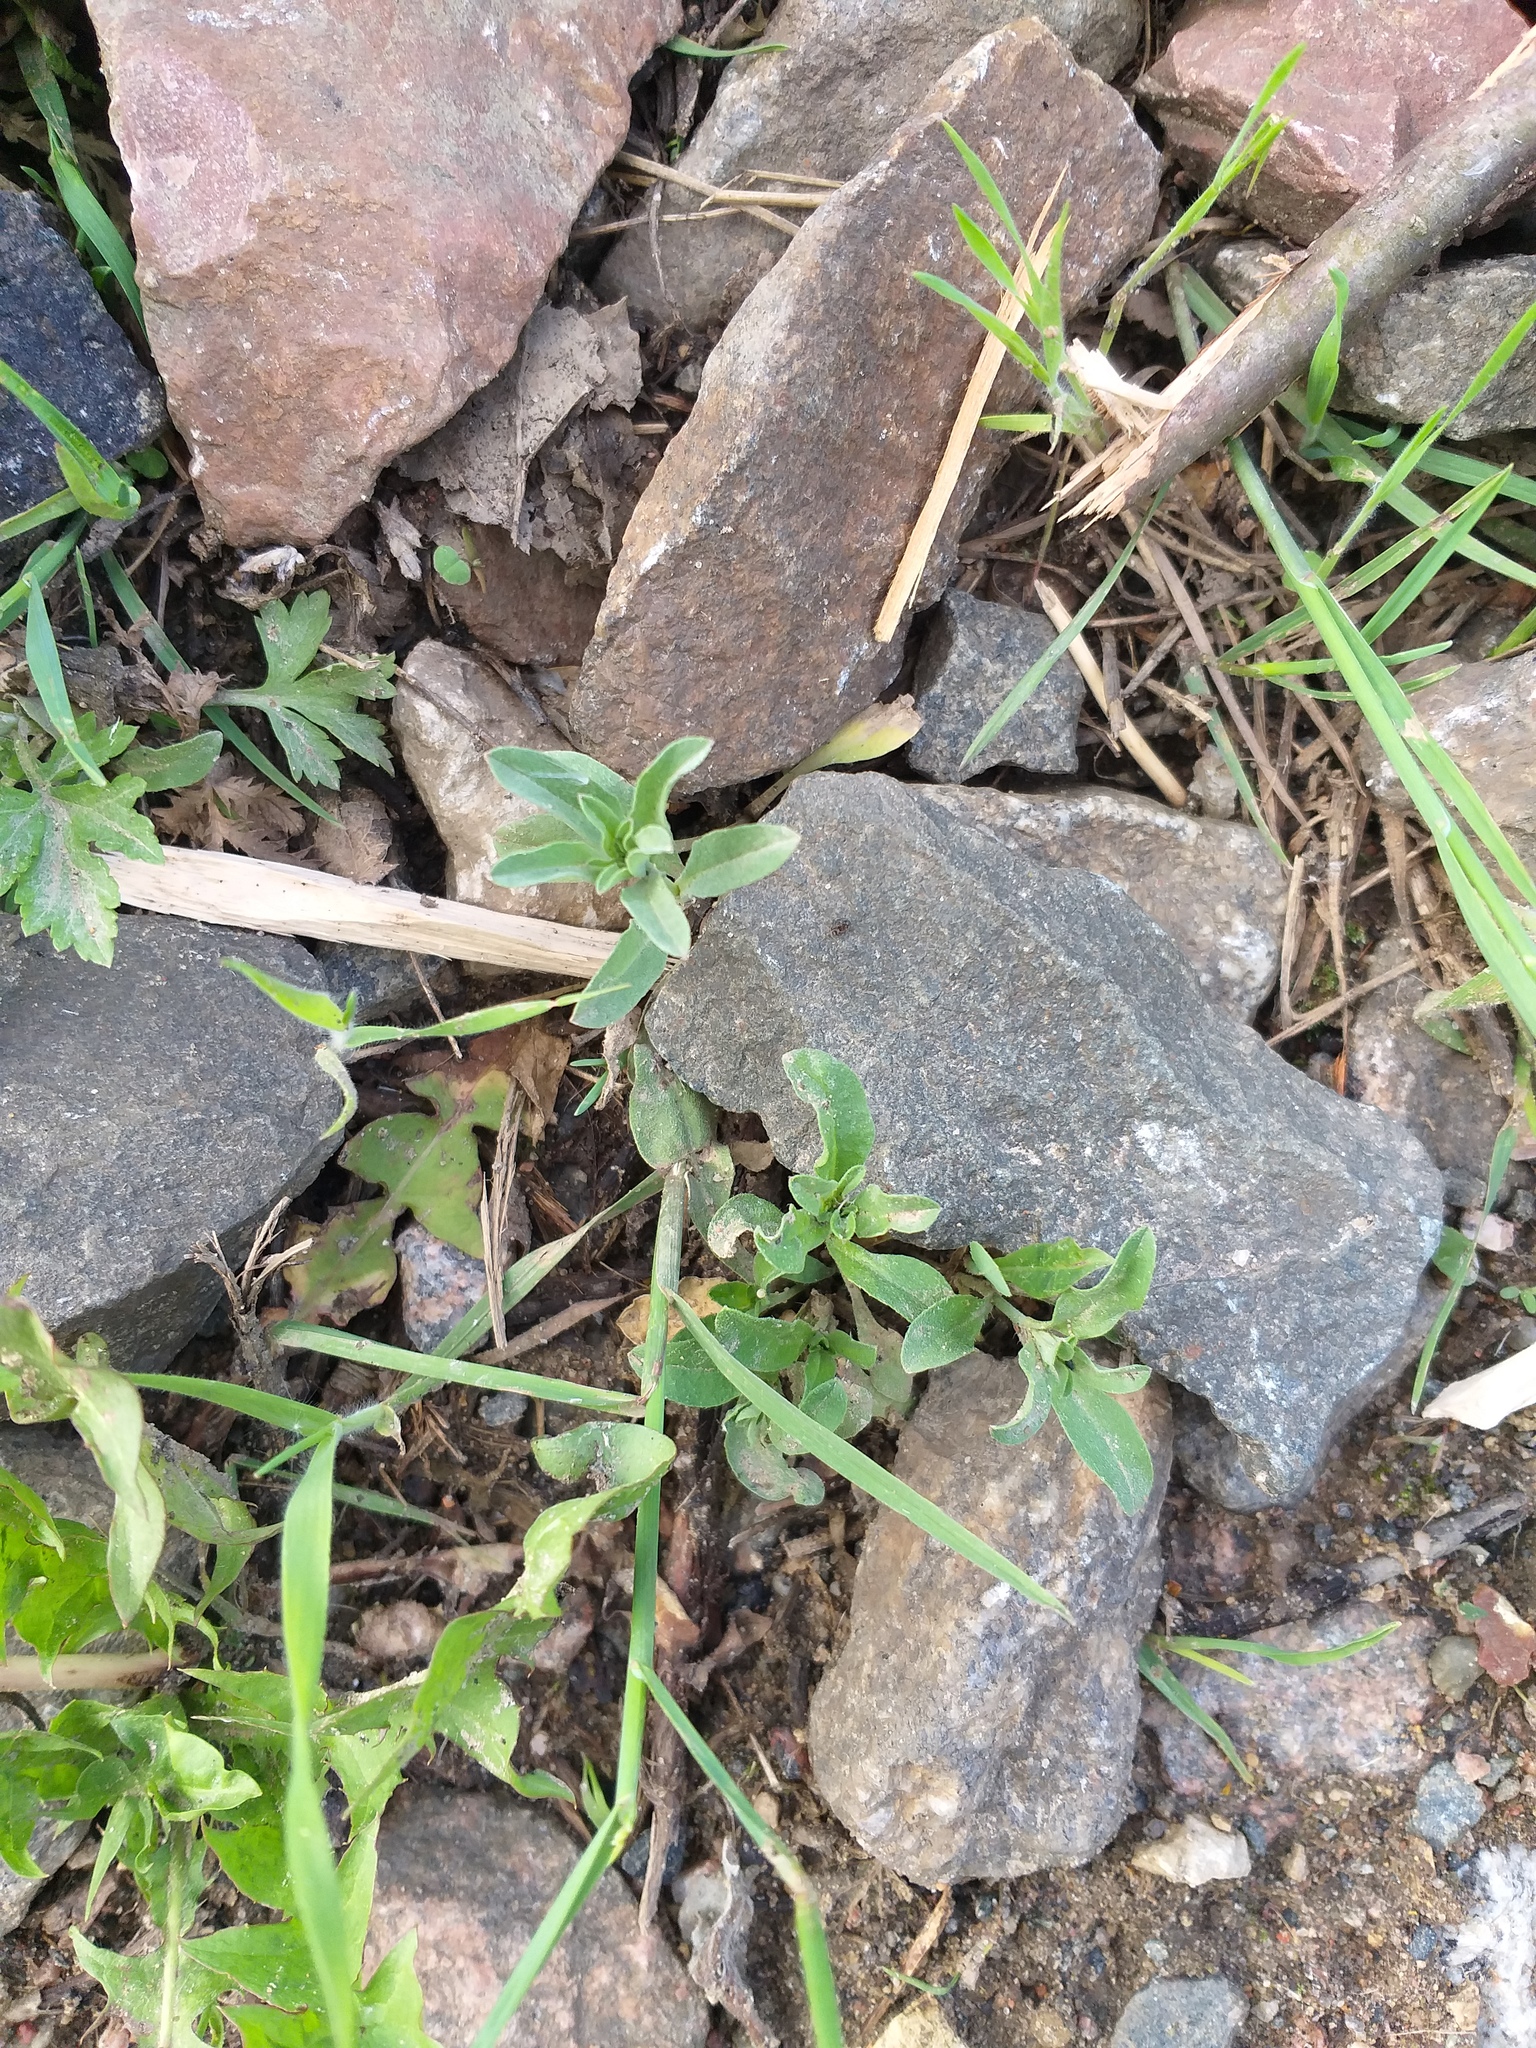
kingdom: Plantae
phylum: Tracheophyta
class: Magnoliopsida
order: Brassicales
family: Brassicaceae
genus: Berteroa
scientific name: Berteroa incana
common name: Hoary alison
